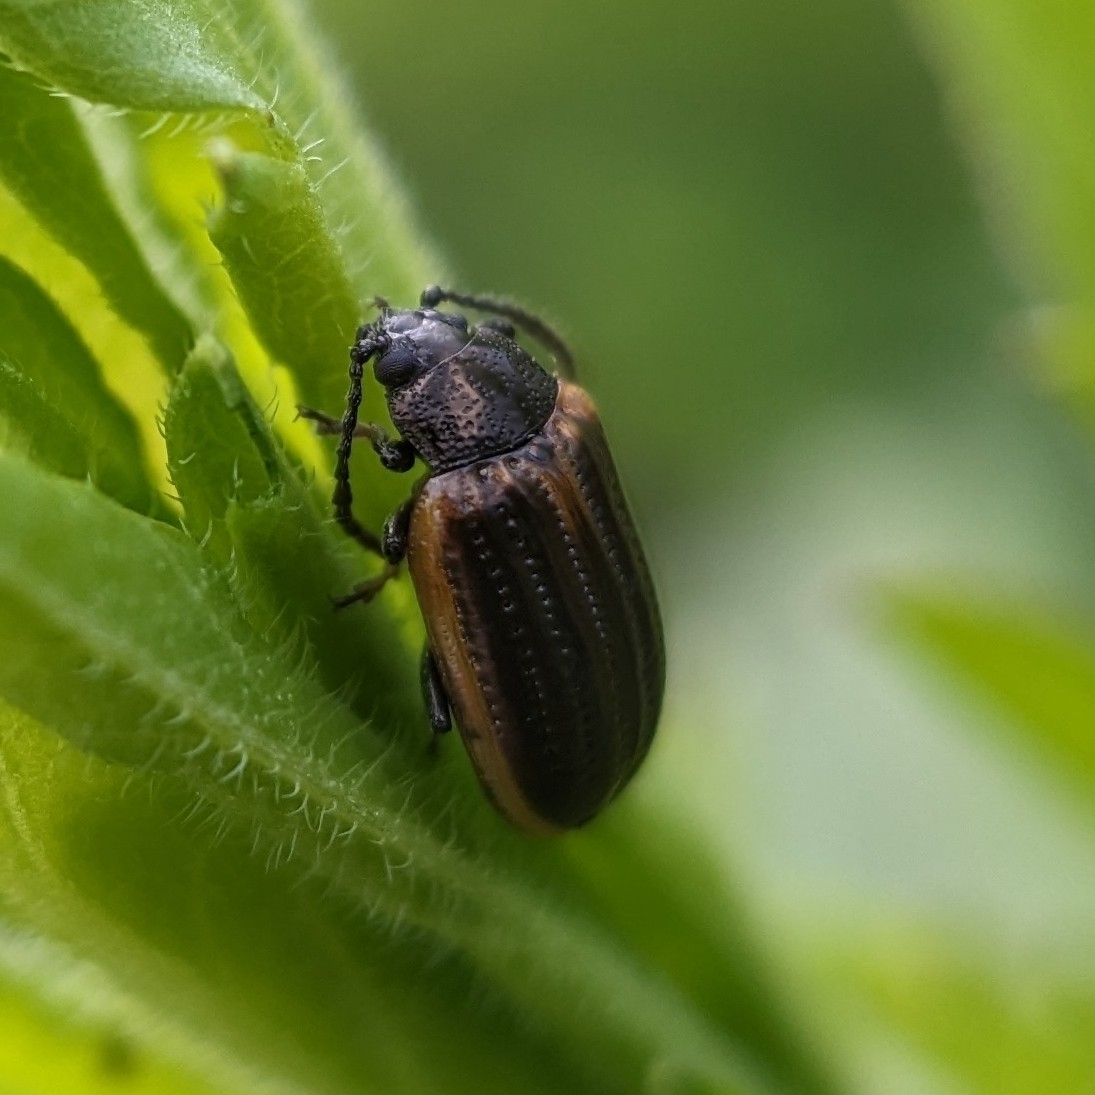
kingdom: Animalia
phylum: Arthropoda
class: Insecta
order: Coleoptera
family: Chrysomelidae
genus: Microtheca
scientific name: Microtheca ochroloma
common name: Leaf beetle
